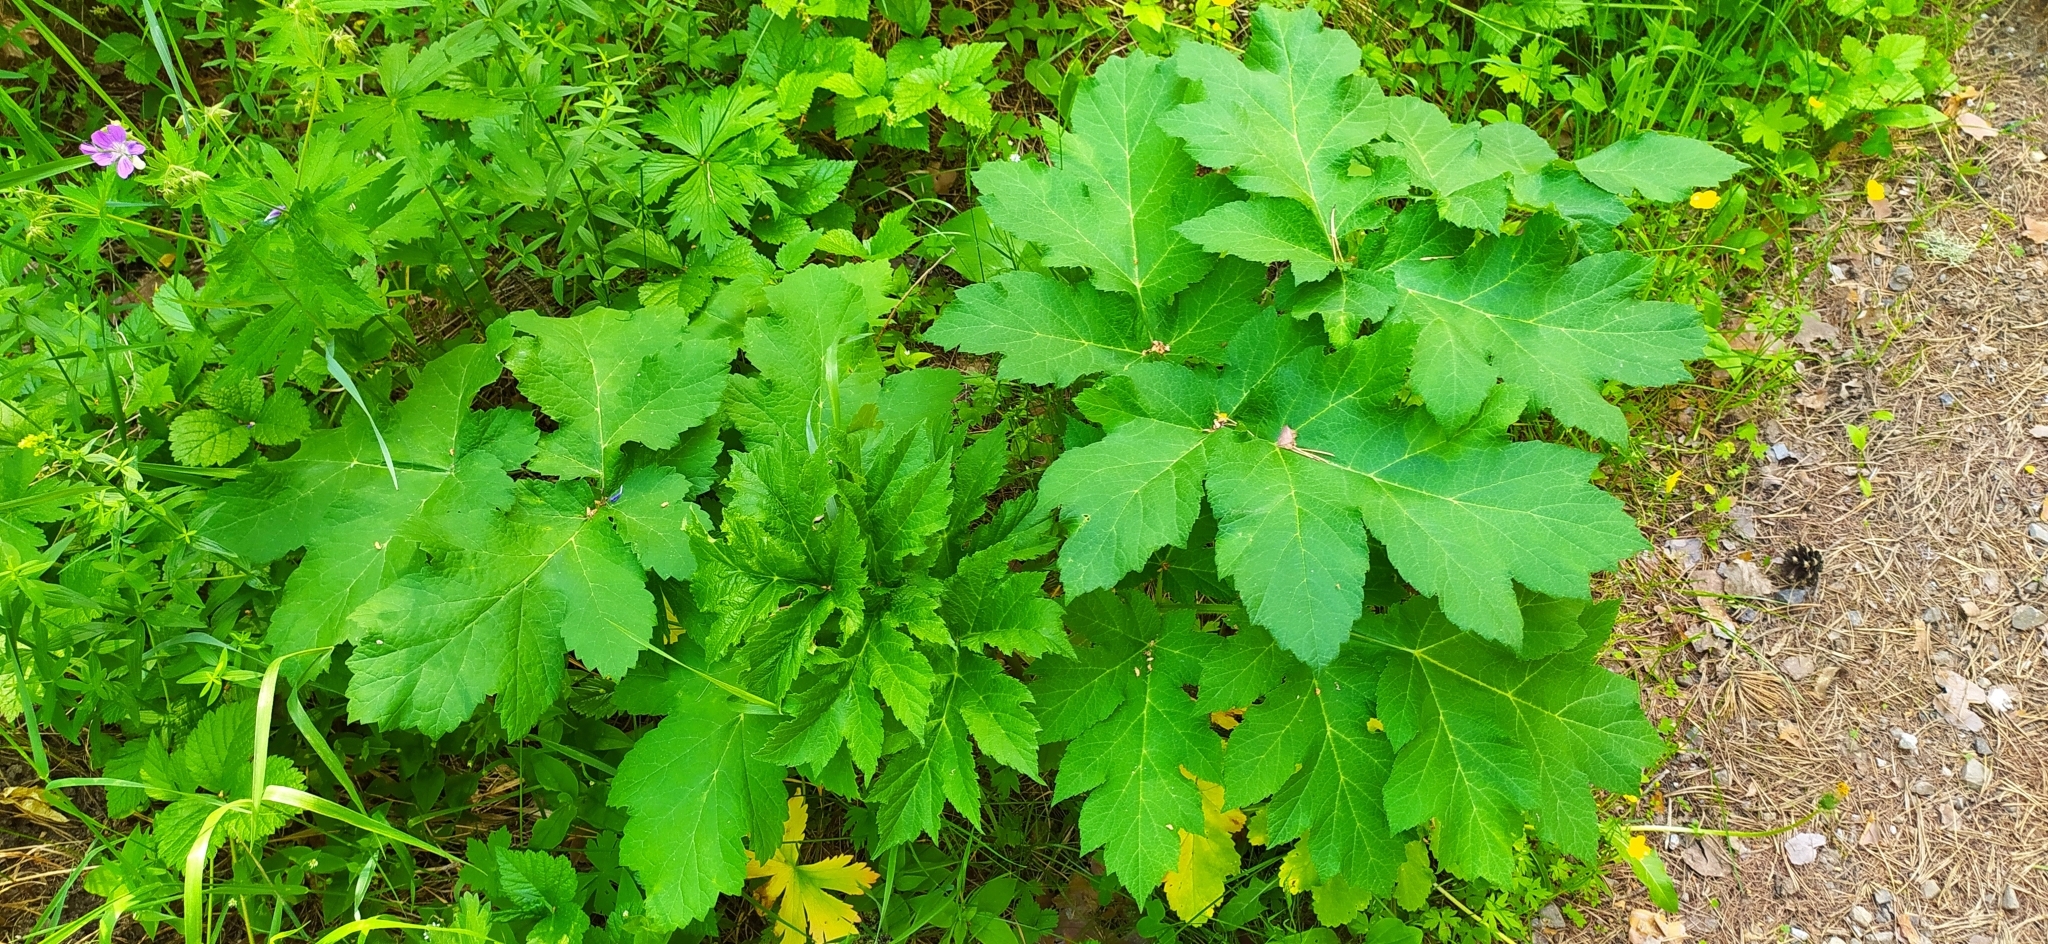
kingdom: Plantae
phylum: Tracheophyta
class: Magnoliopsida
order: Apiales
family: Apiaceae
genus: Heracleum
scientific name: Heracleum sphondylium
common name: Hogweed
